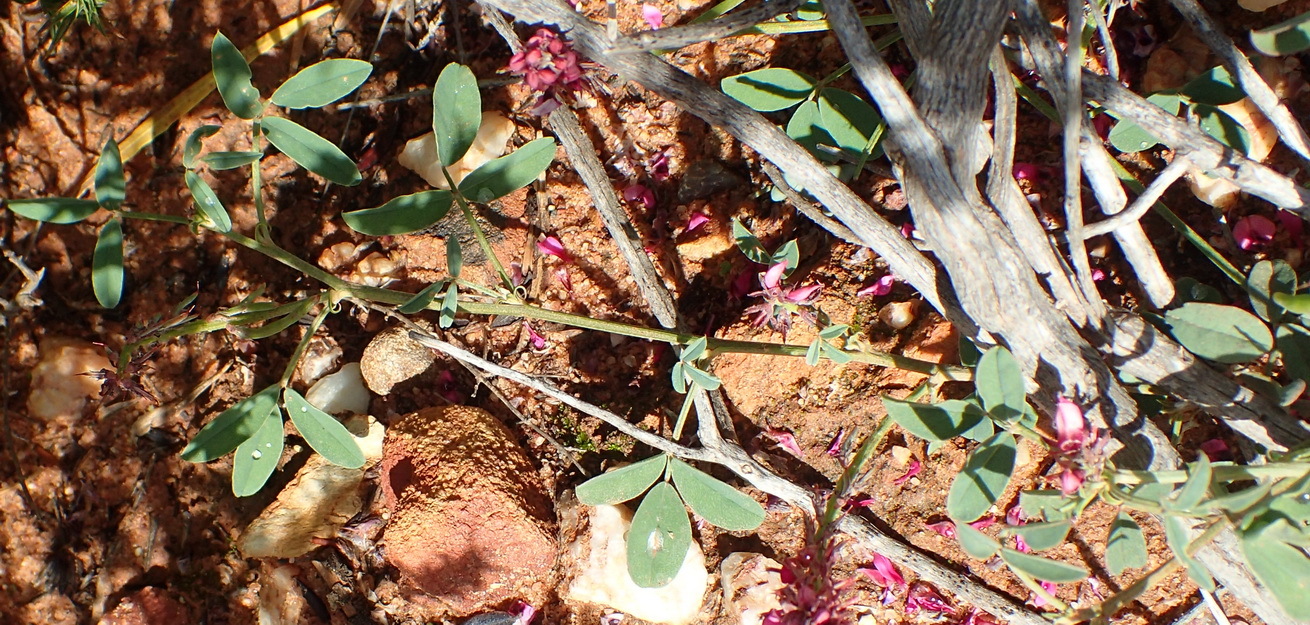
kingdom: Plantae
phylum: Tracheophyta
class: Magnoliopsida
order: Fabales
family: Fabaceae
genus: Indigofera
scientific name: Indigofera intermedia
